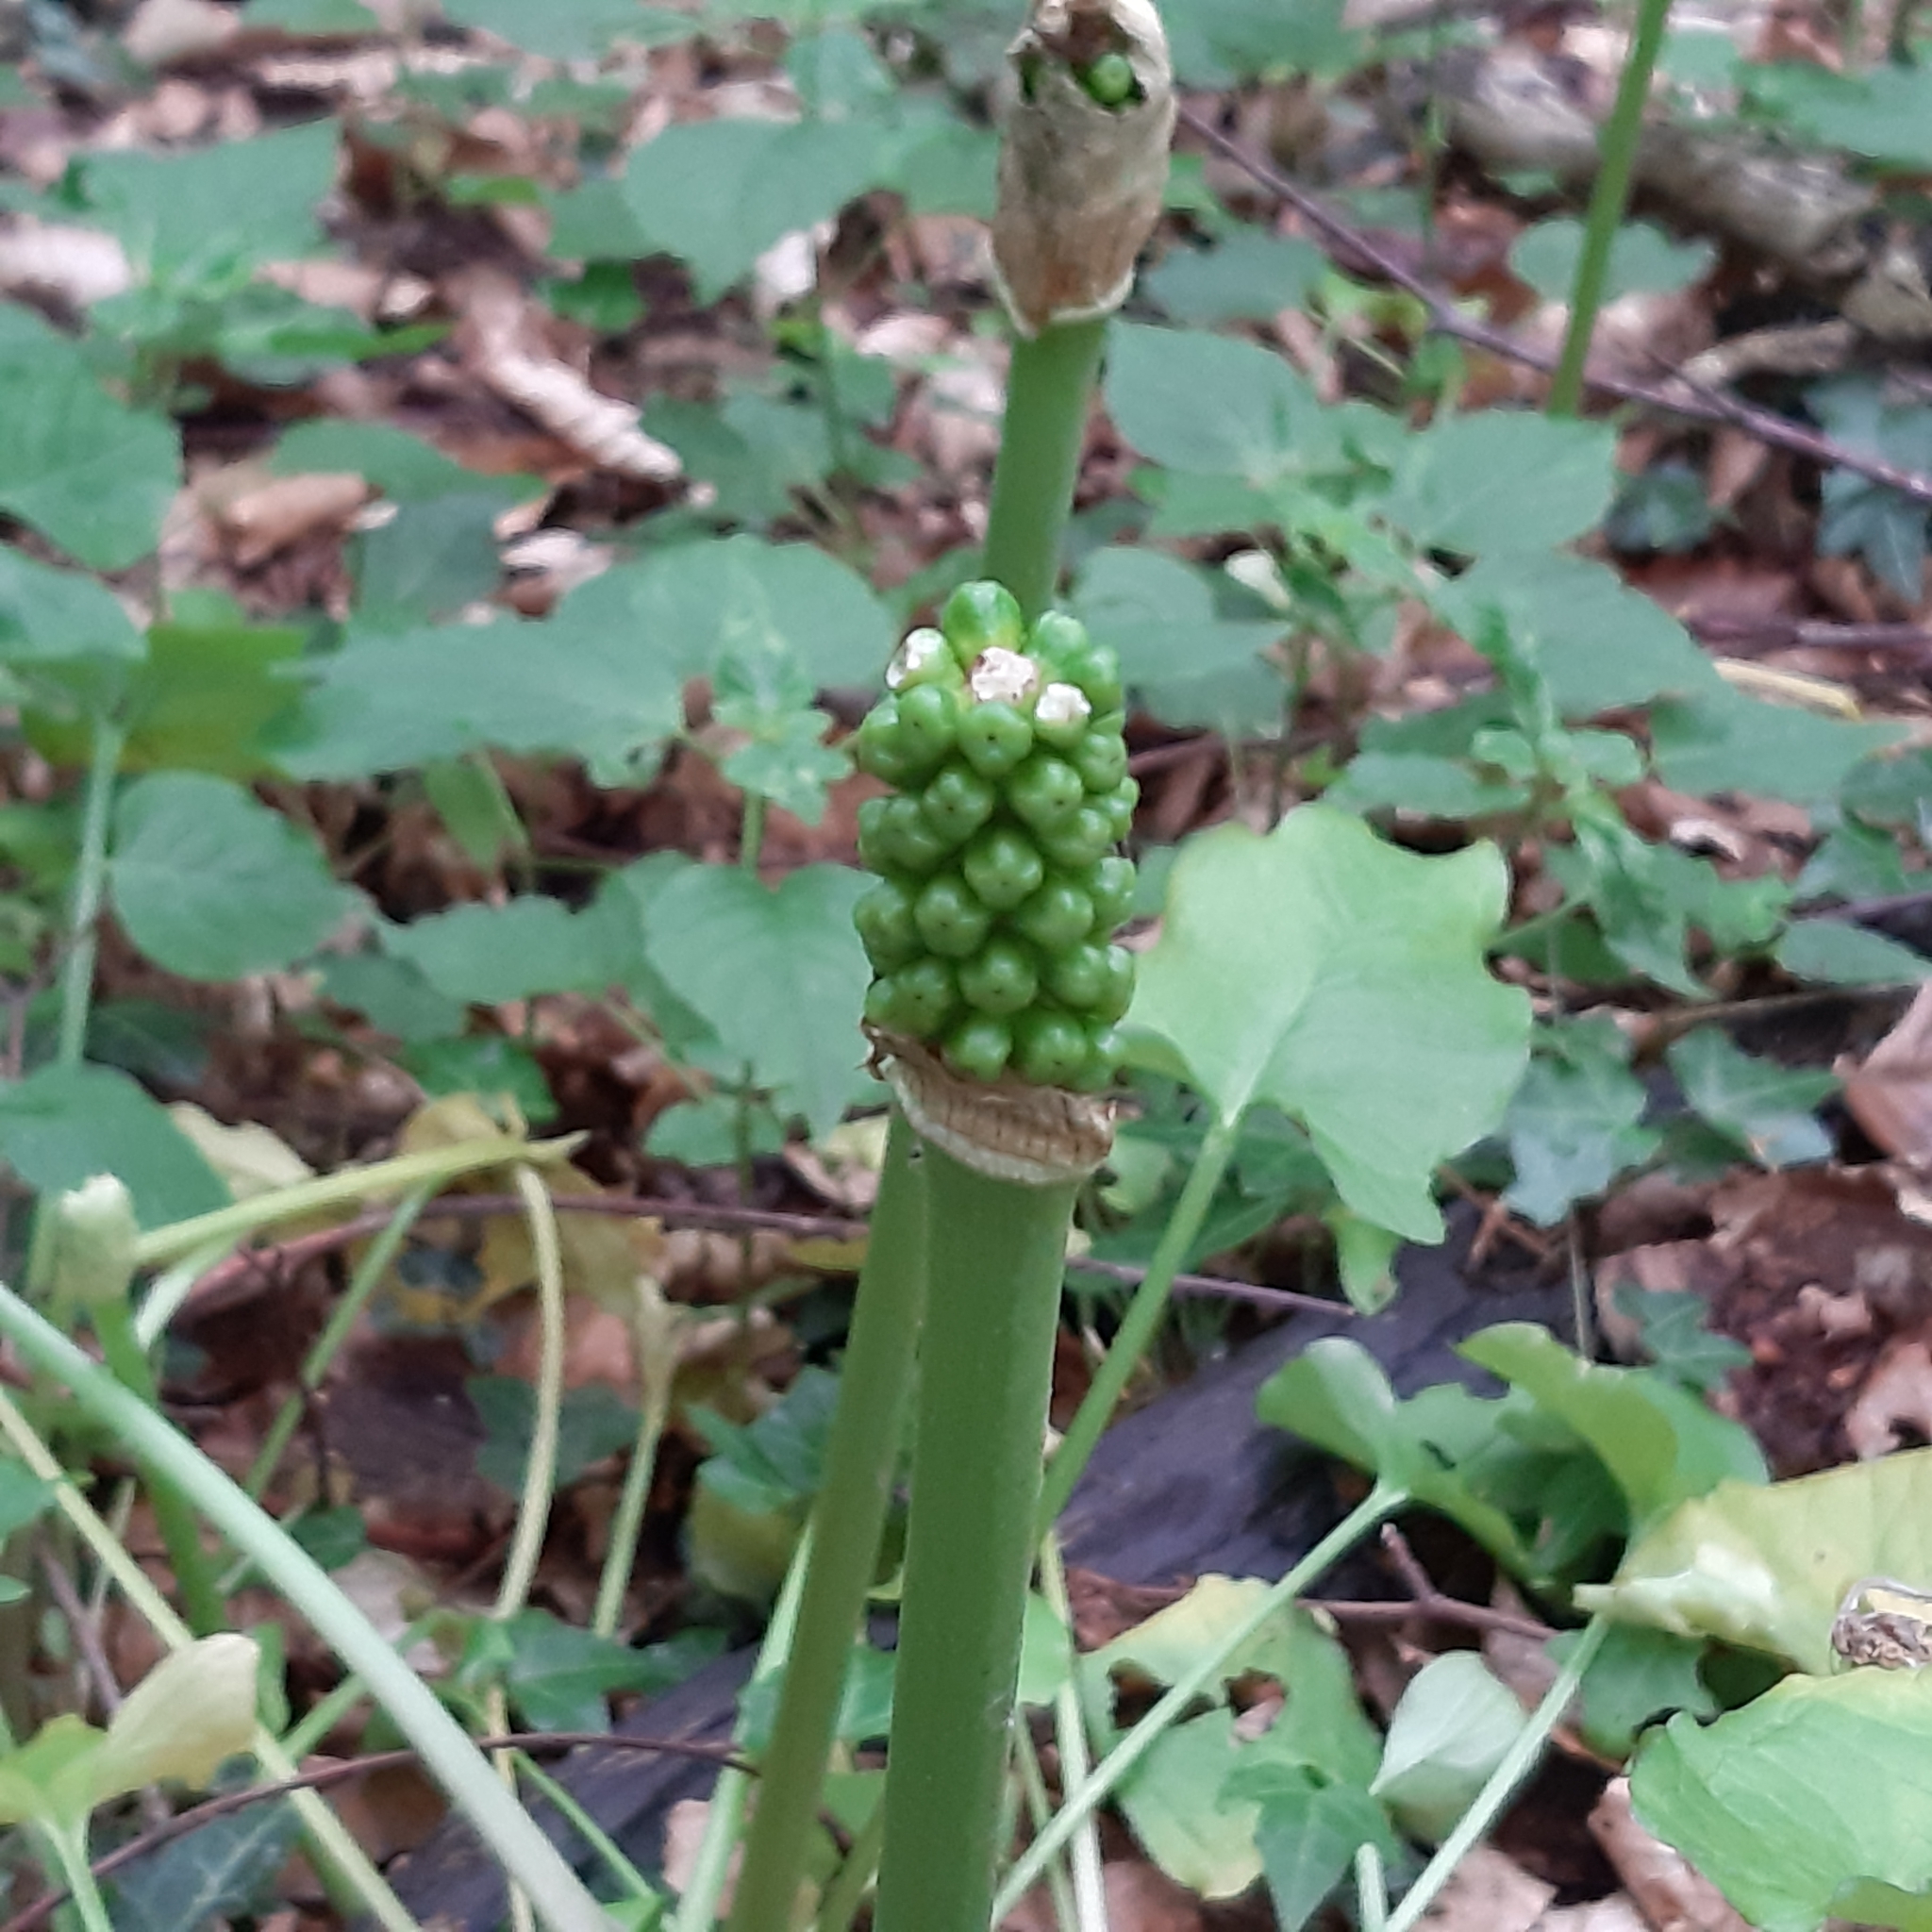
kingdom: Plantae
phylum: Tracheophyta
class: Liliopsida
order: Alismatales
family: Araceae
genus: Arum
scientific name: Arum cylindraceum
